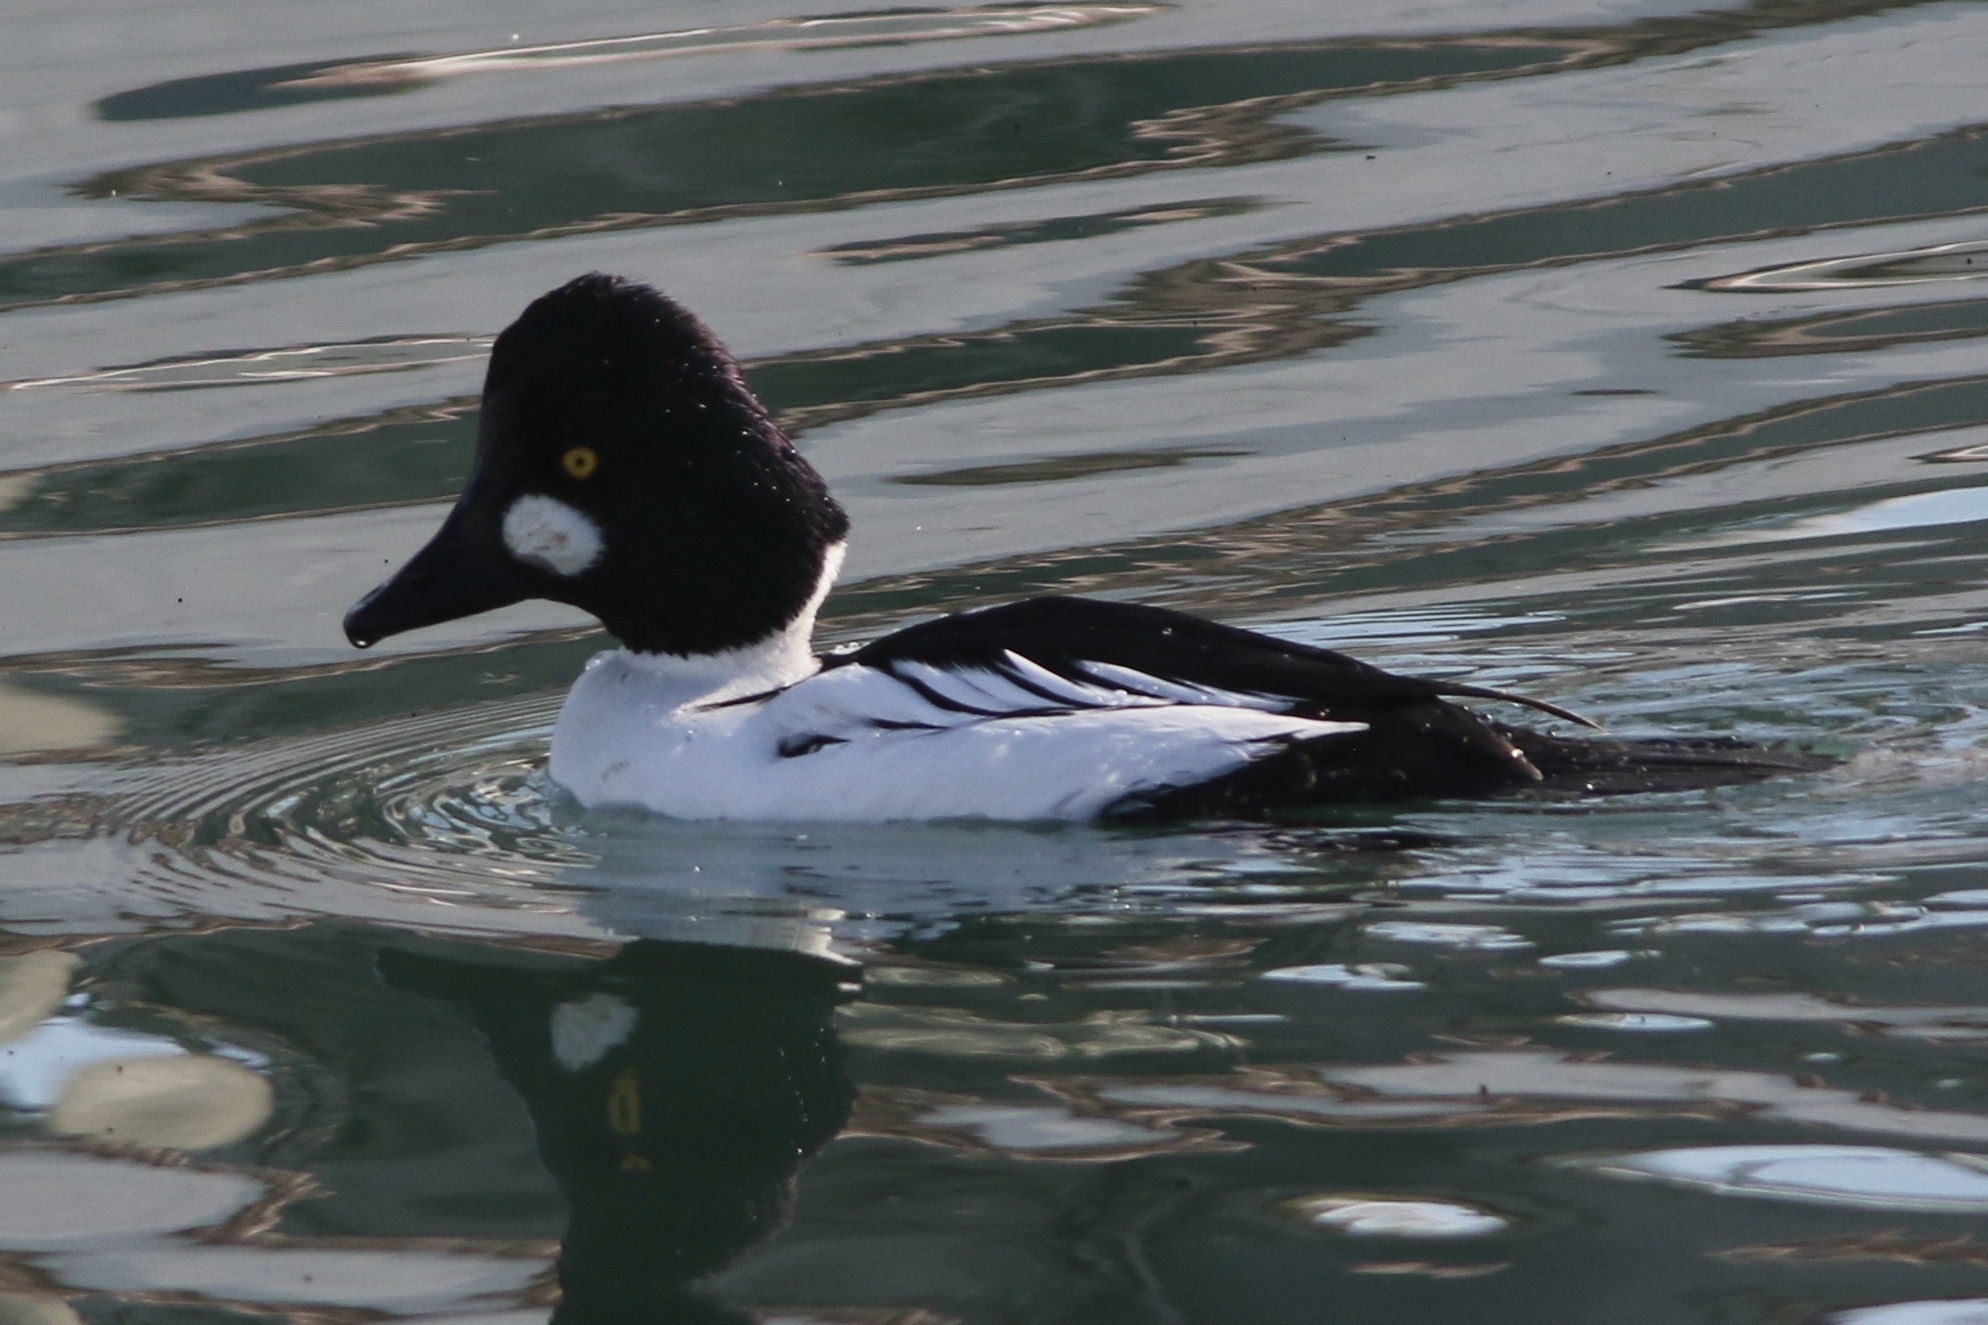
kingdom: Animalia
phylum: Chordata
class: Aves
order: Anseriformes
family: Anatidae
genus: Bucephala
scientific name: Bucephala clangula
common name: Common goldeneye
